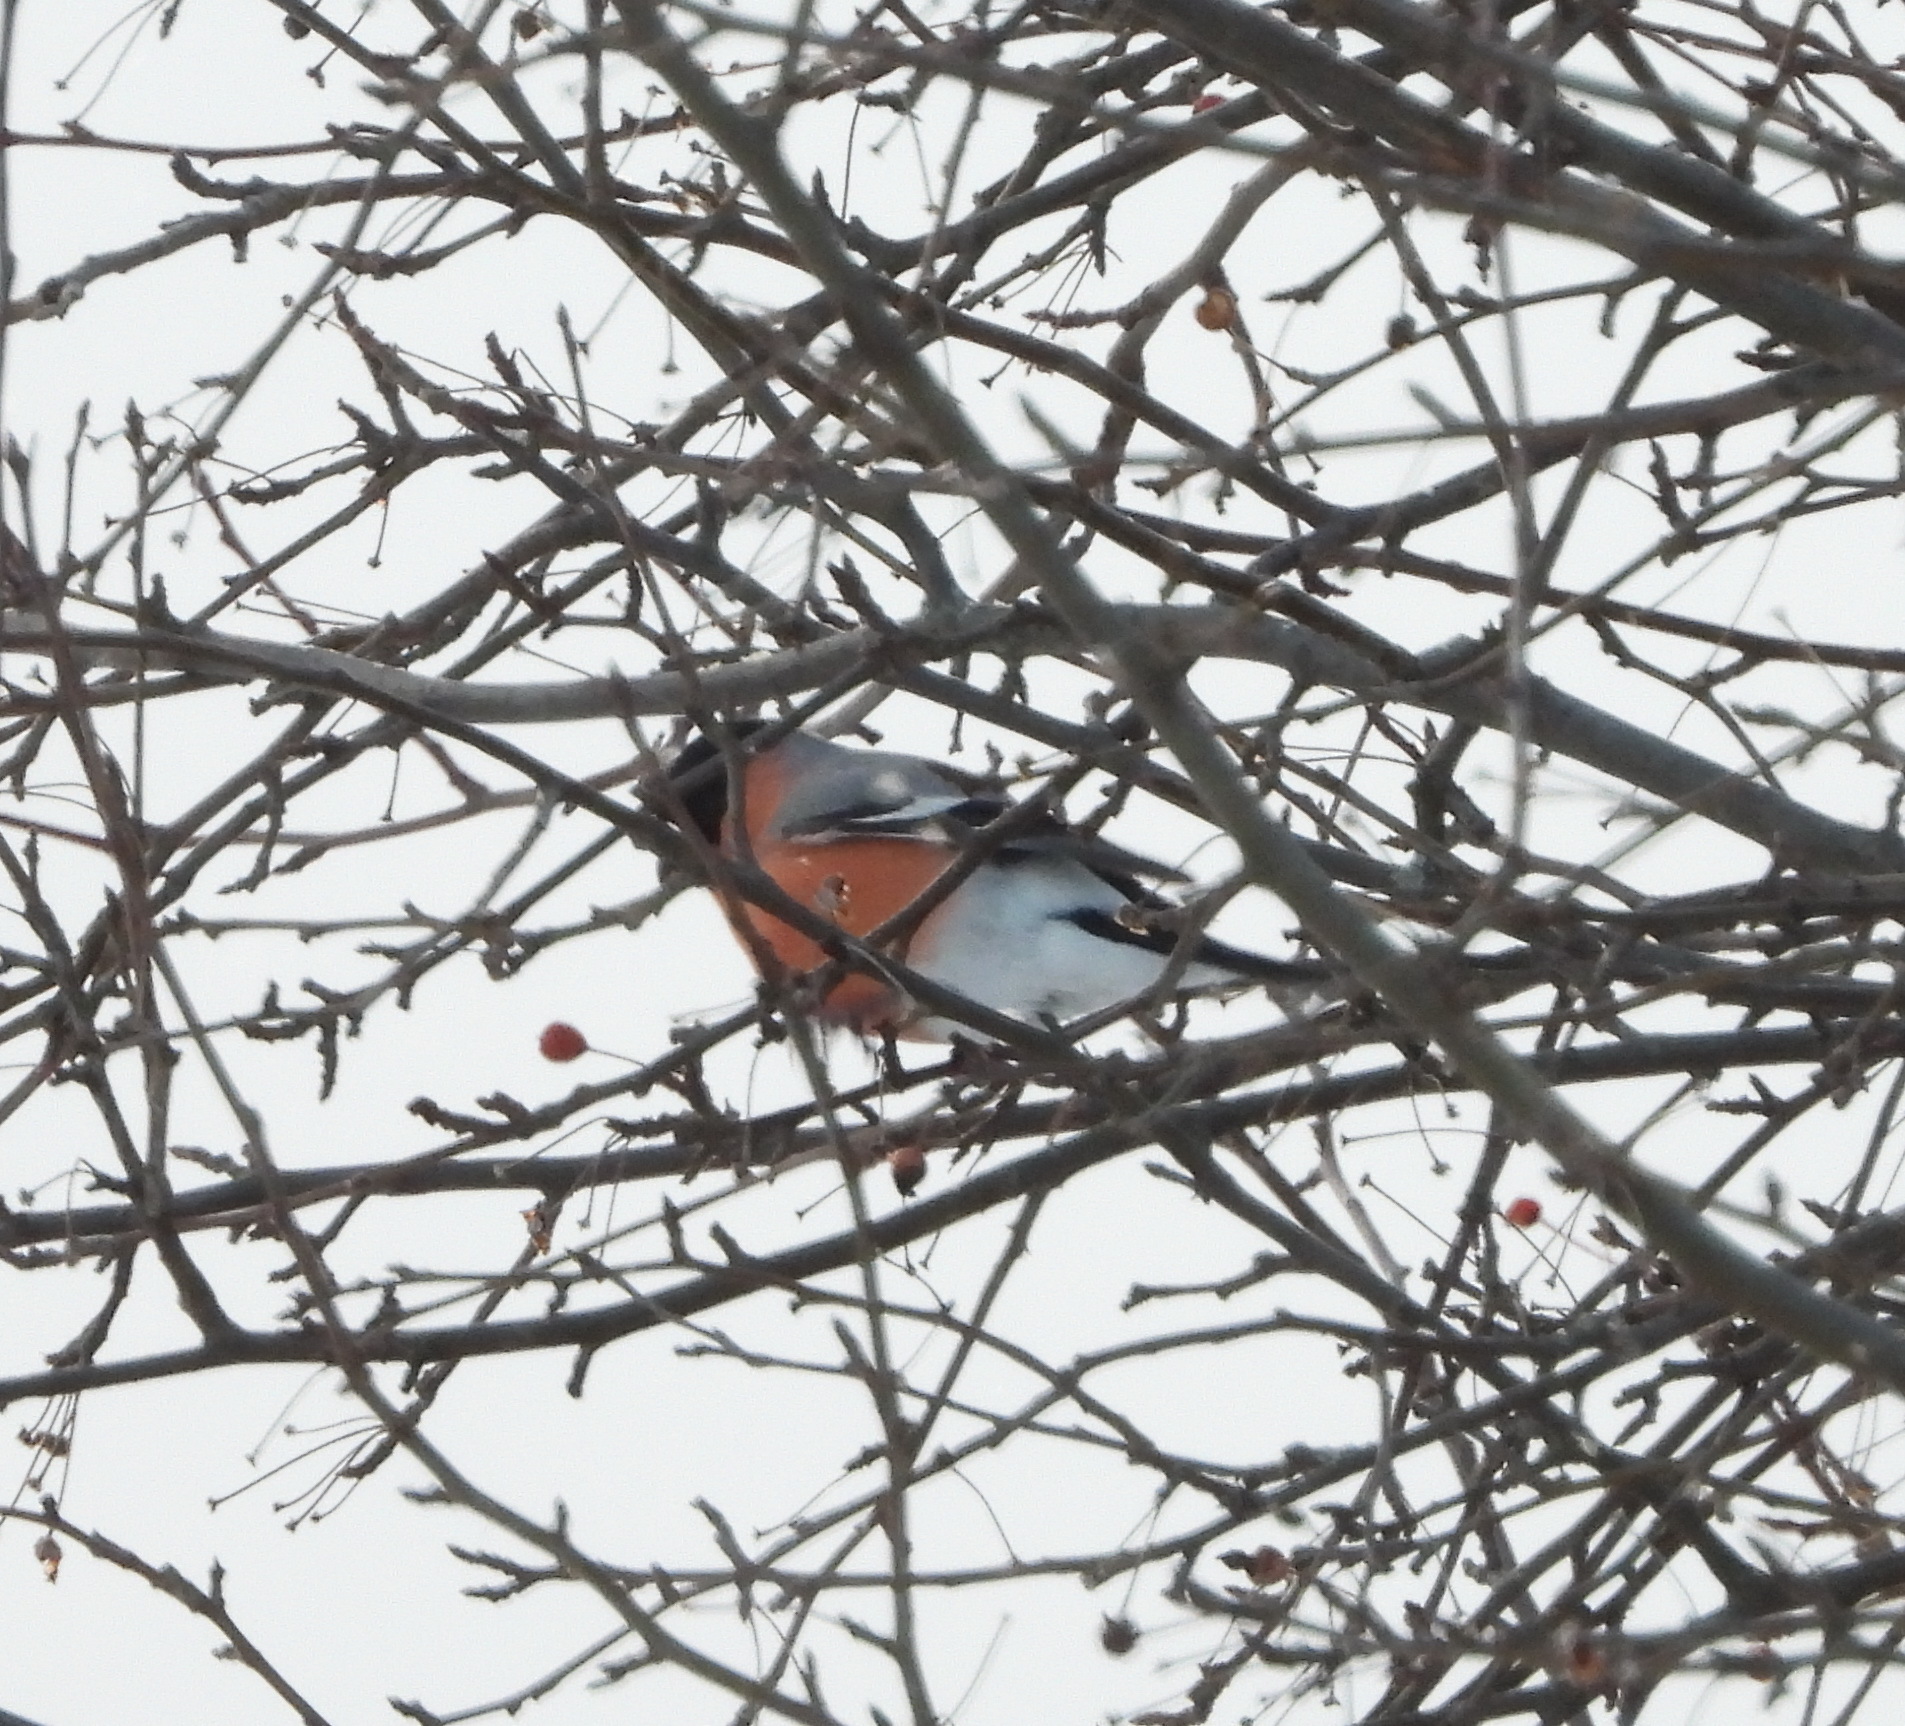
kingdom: Animalia
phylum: Chordata
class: Aves
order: Passeriformes
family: Fringillidae
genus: Pyrrhula
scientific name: Pyrrhula pyrrhula
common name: Eurasian bullfinch
